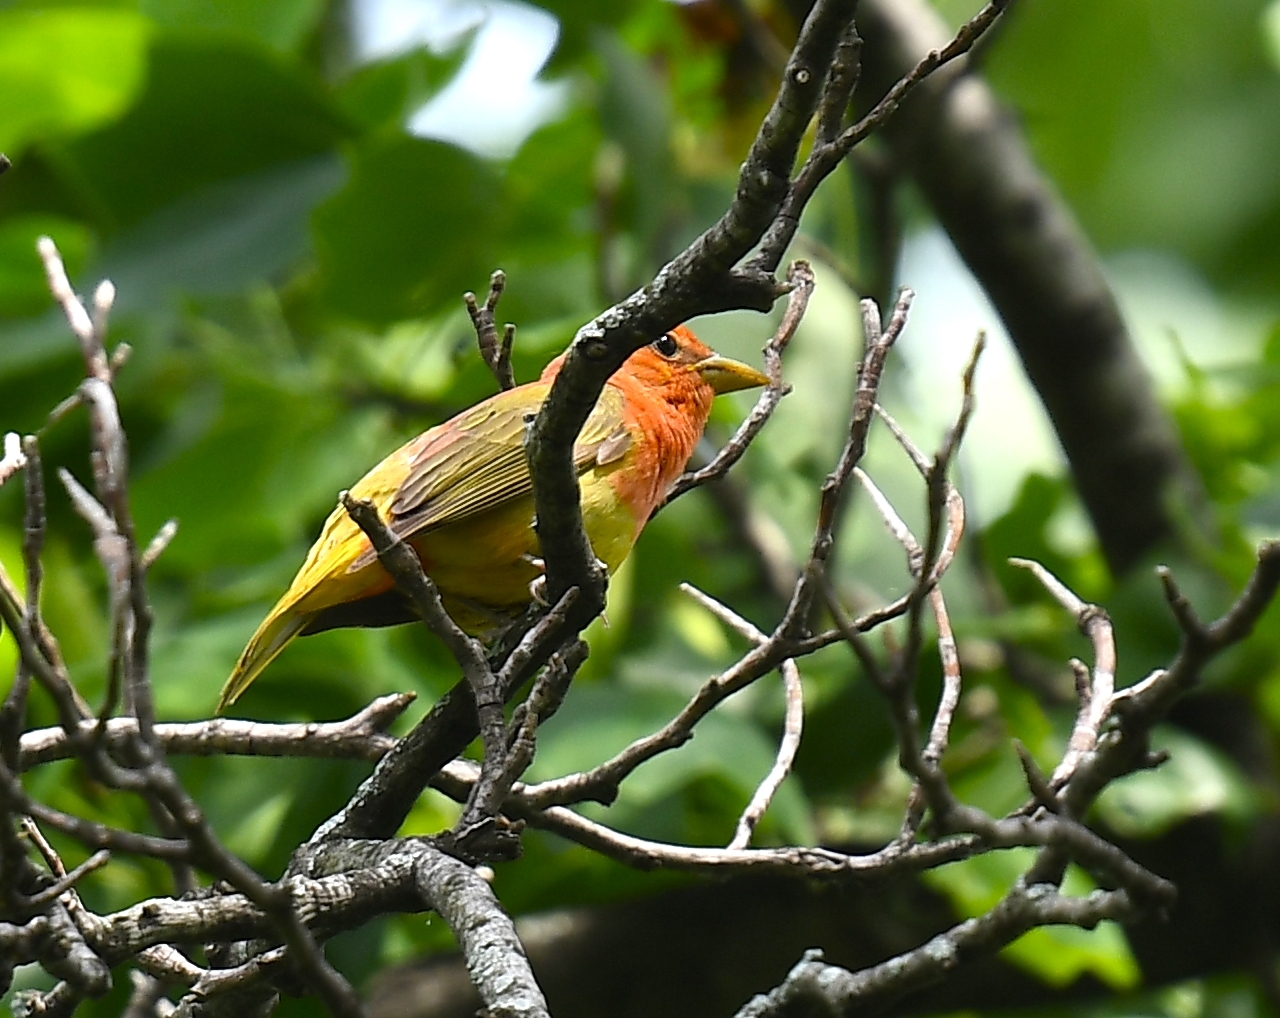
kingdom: Animalia
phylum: Chordata
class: Aves
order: Passeriformes
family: Cardinalidae
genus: Piranga
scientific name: Piranga rubra
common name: Summer tanager
